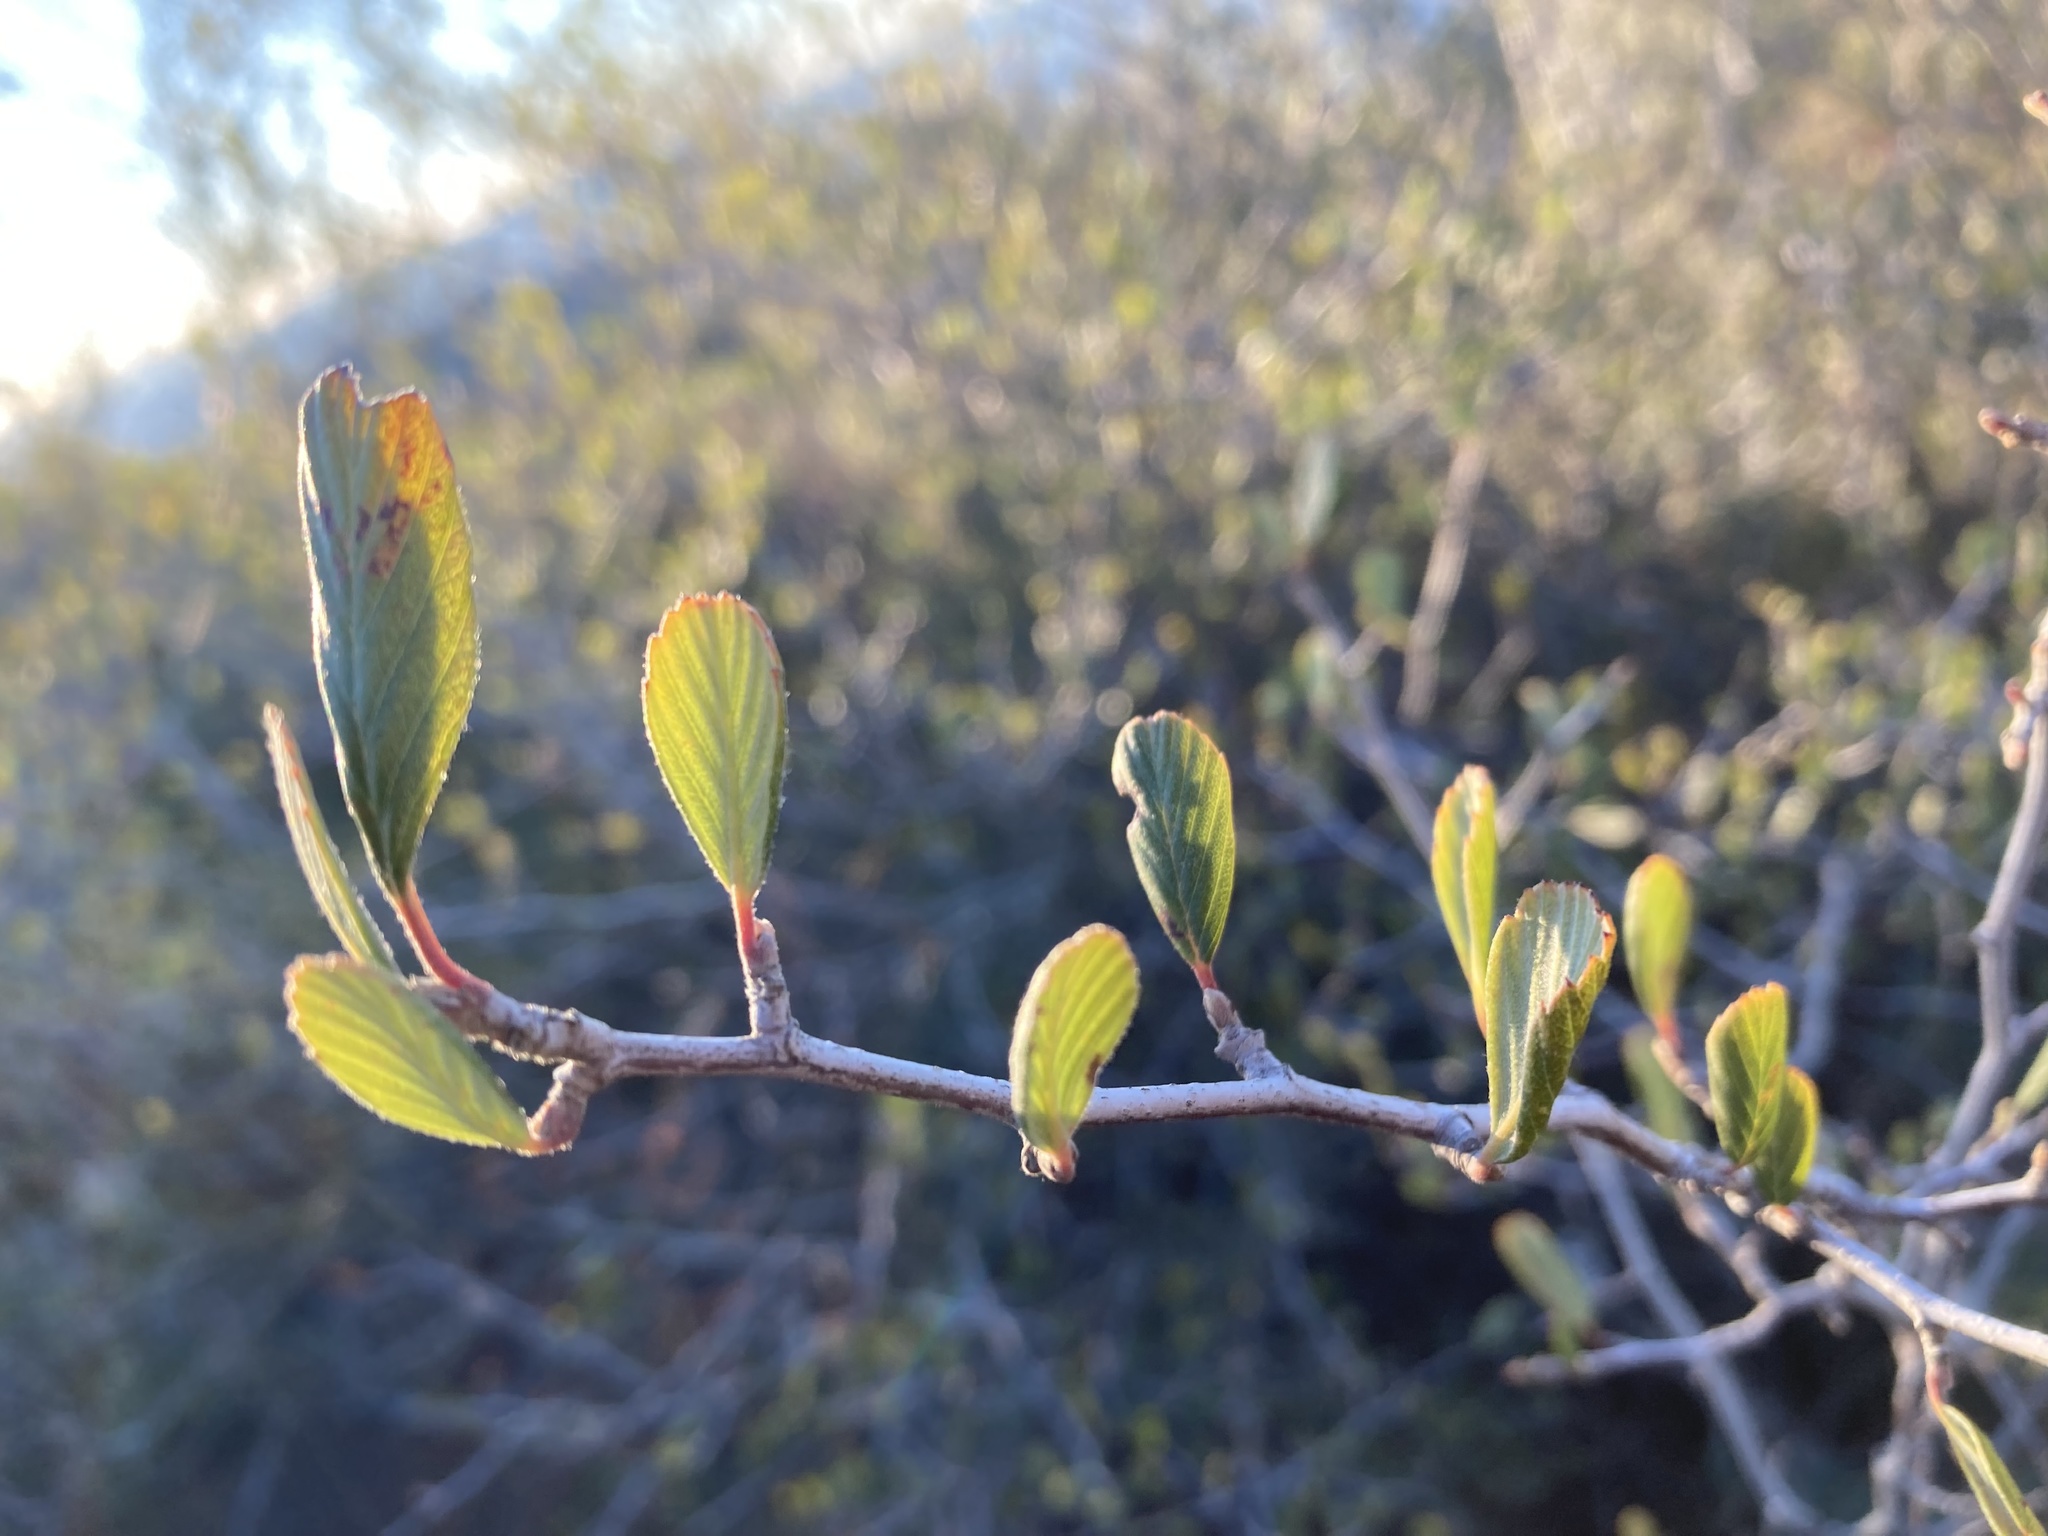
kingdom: Plantae
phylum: Tracheophyta
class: Magnoliopsida
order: Rosales
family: Rosaceae
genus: Cercocarpus
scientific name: Cercocarpus betuloides
